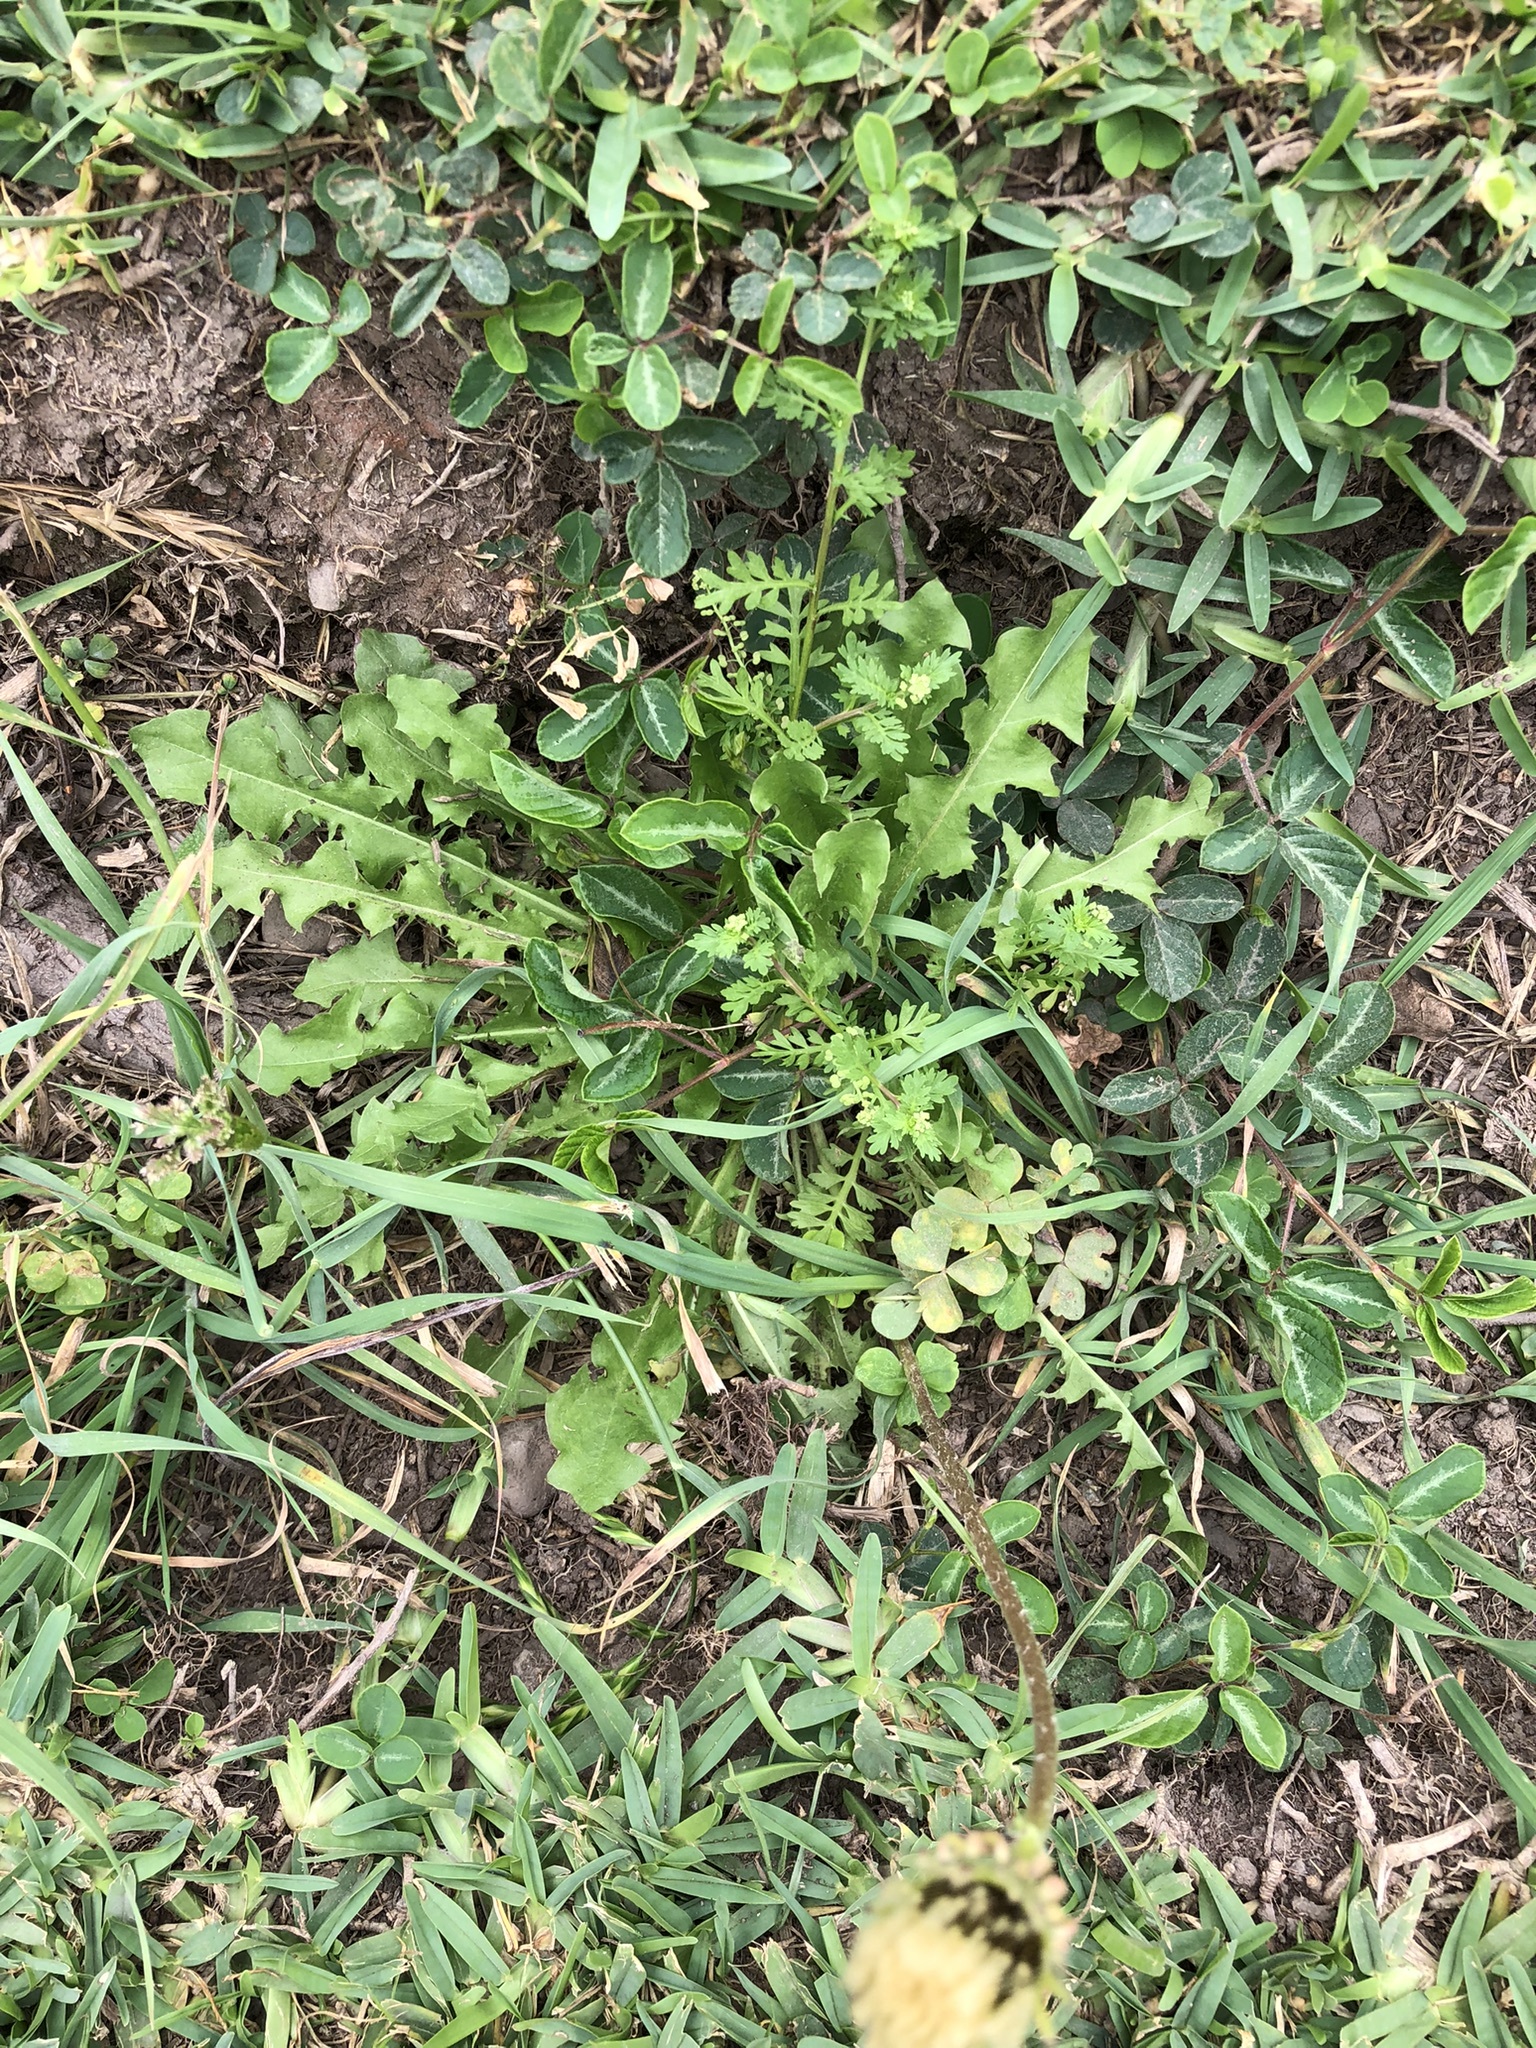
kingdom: Plantae
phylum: Tracheophyta
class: Magnoliopsida
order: Asterales
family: Asteraceae
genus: Taraxacum
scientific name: Taraxacum officinale
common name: Common dandelion
